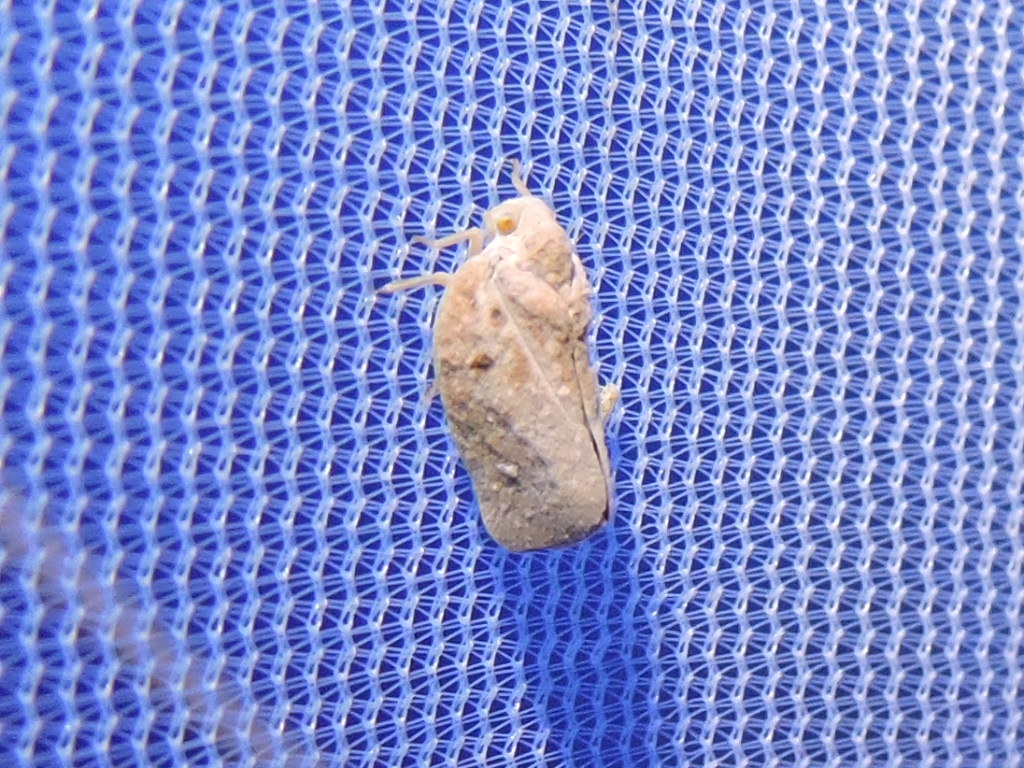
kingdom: Animalia
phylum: Arthropoda
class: Insecta
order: Hemiptera
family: Flatidae
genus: Metcalfa
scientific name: Metcalfa pruinosa
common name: Citrus flatid planthopper
